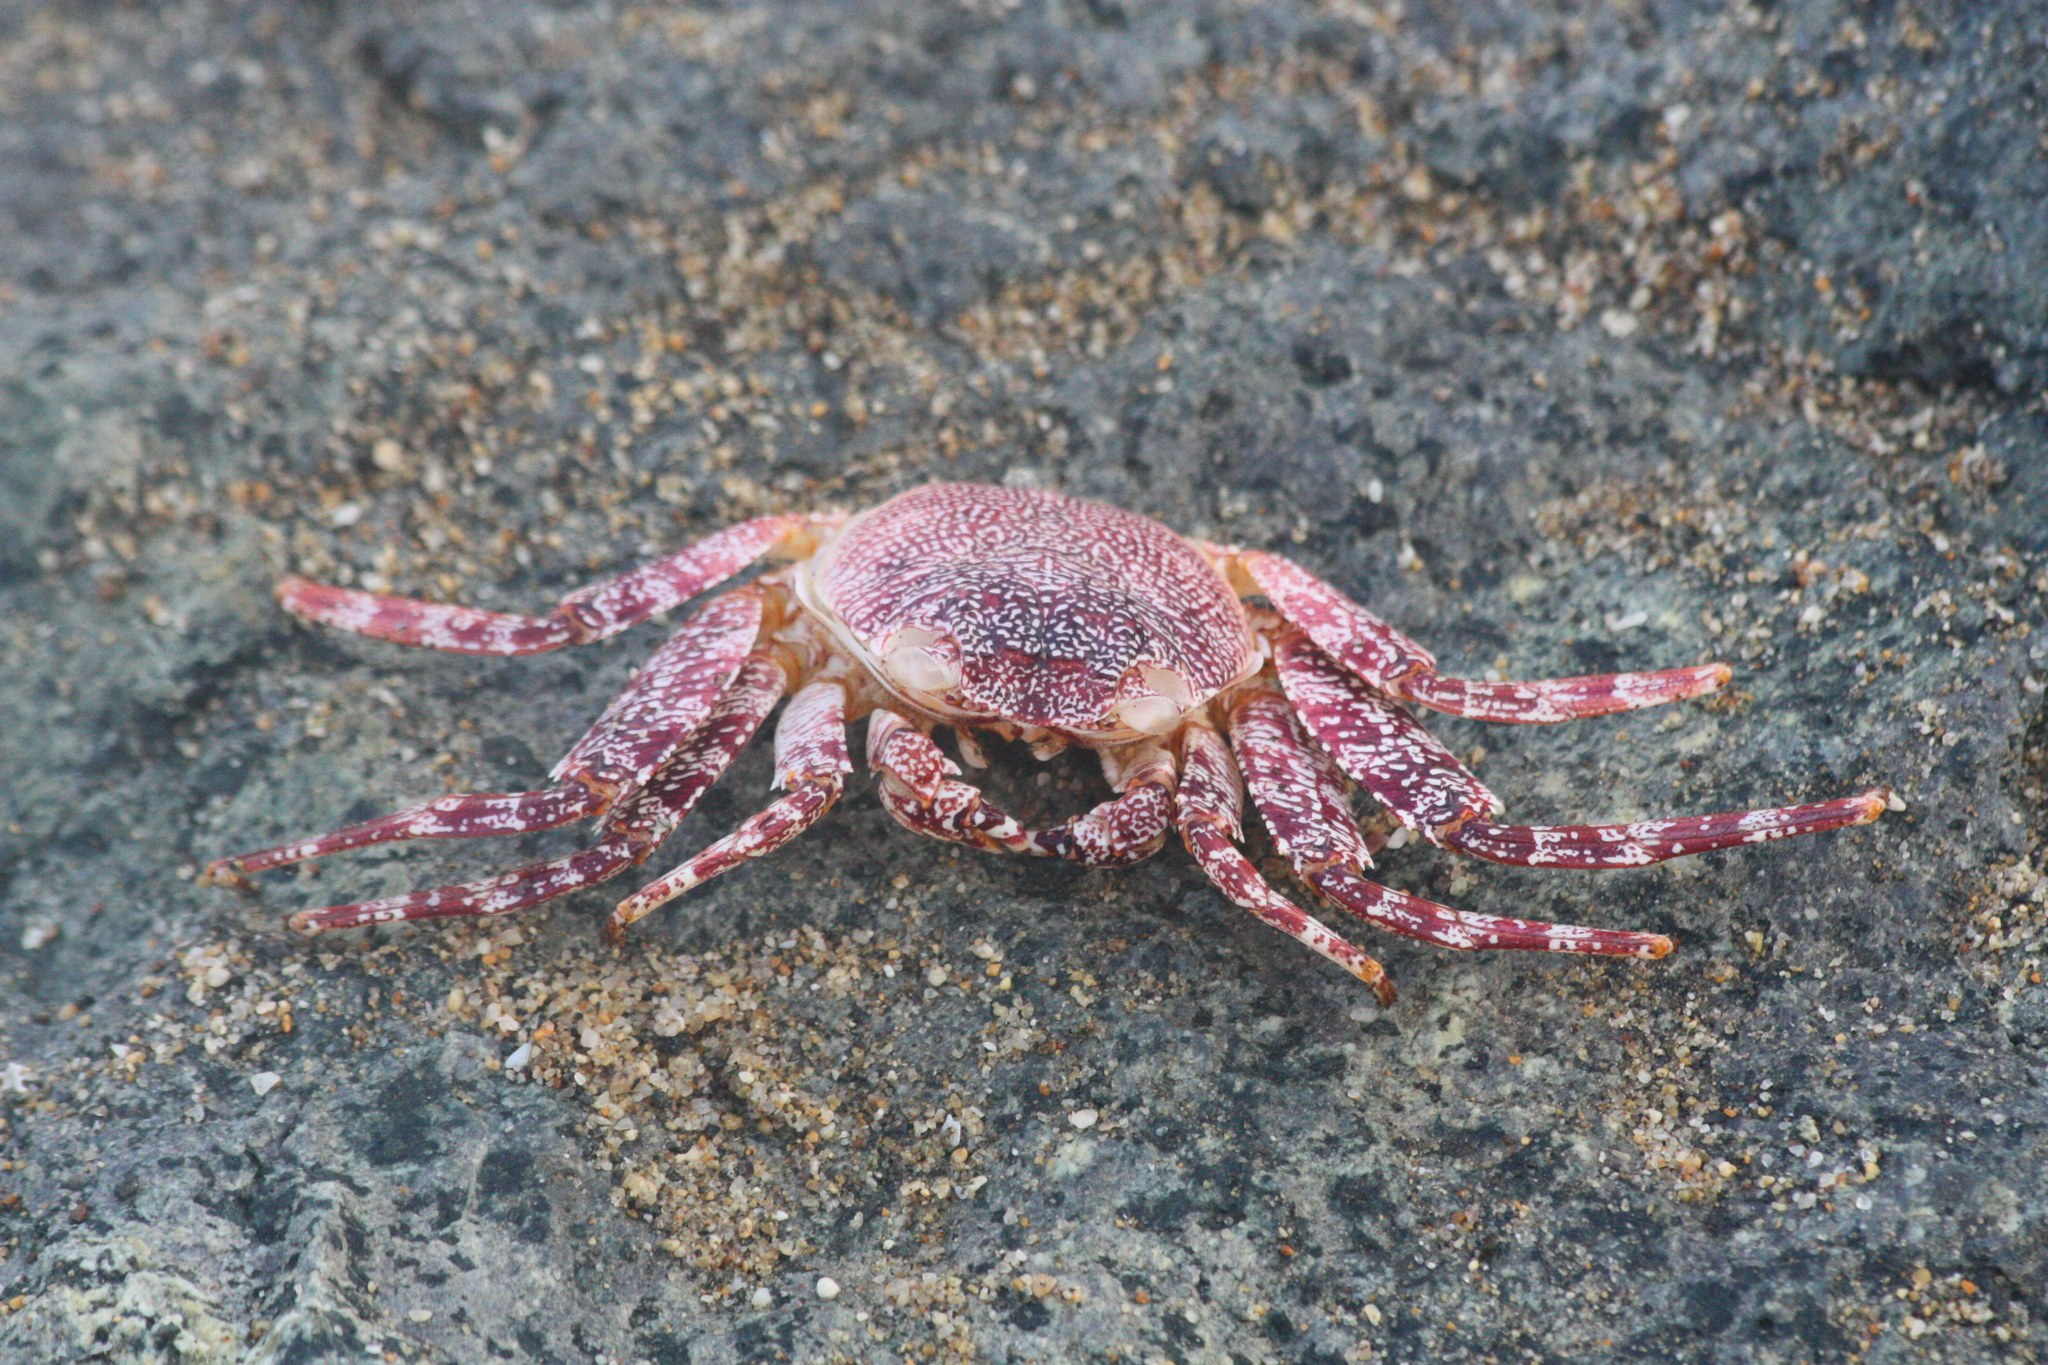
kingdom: Animalia
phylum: Arthropoda
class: Malacostraca
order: Decapoda
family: Grapsidae
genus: Grapsus
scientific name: Grapsus grapsus
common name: Sally lightfoot
